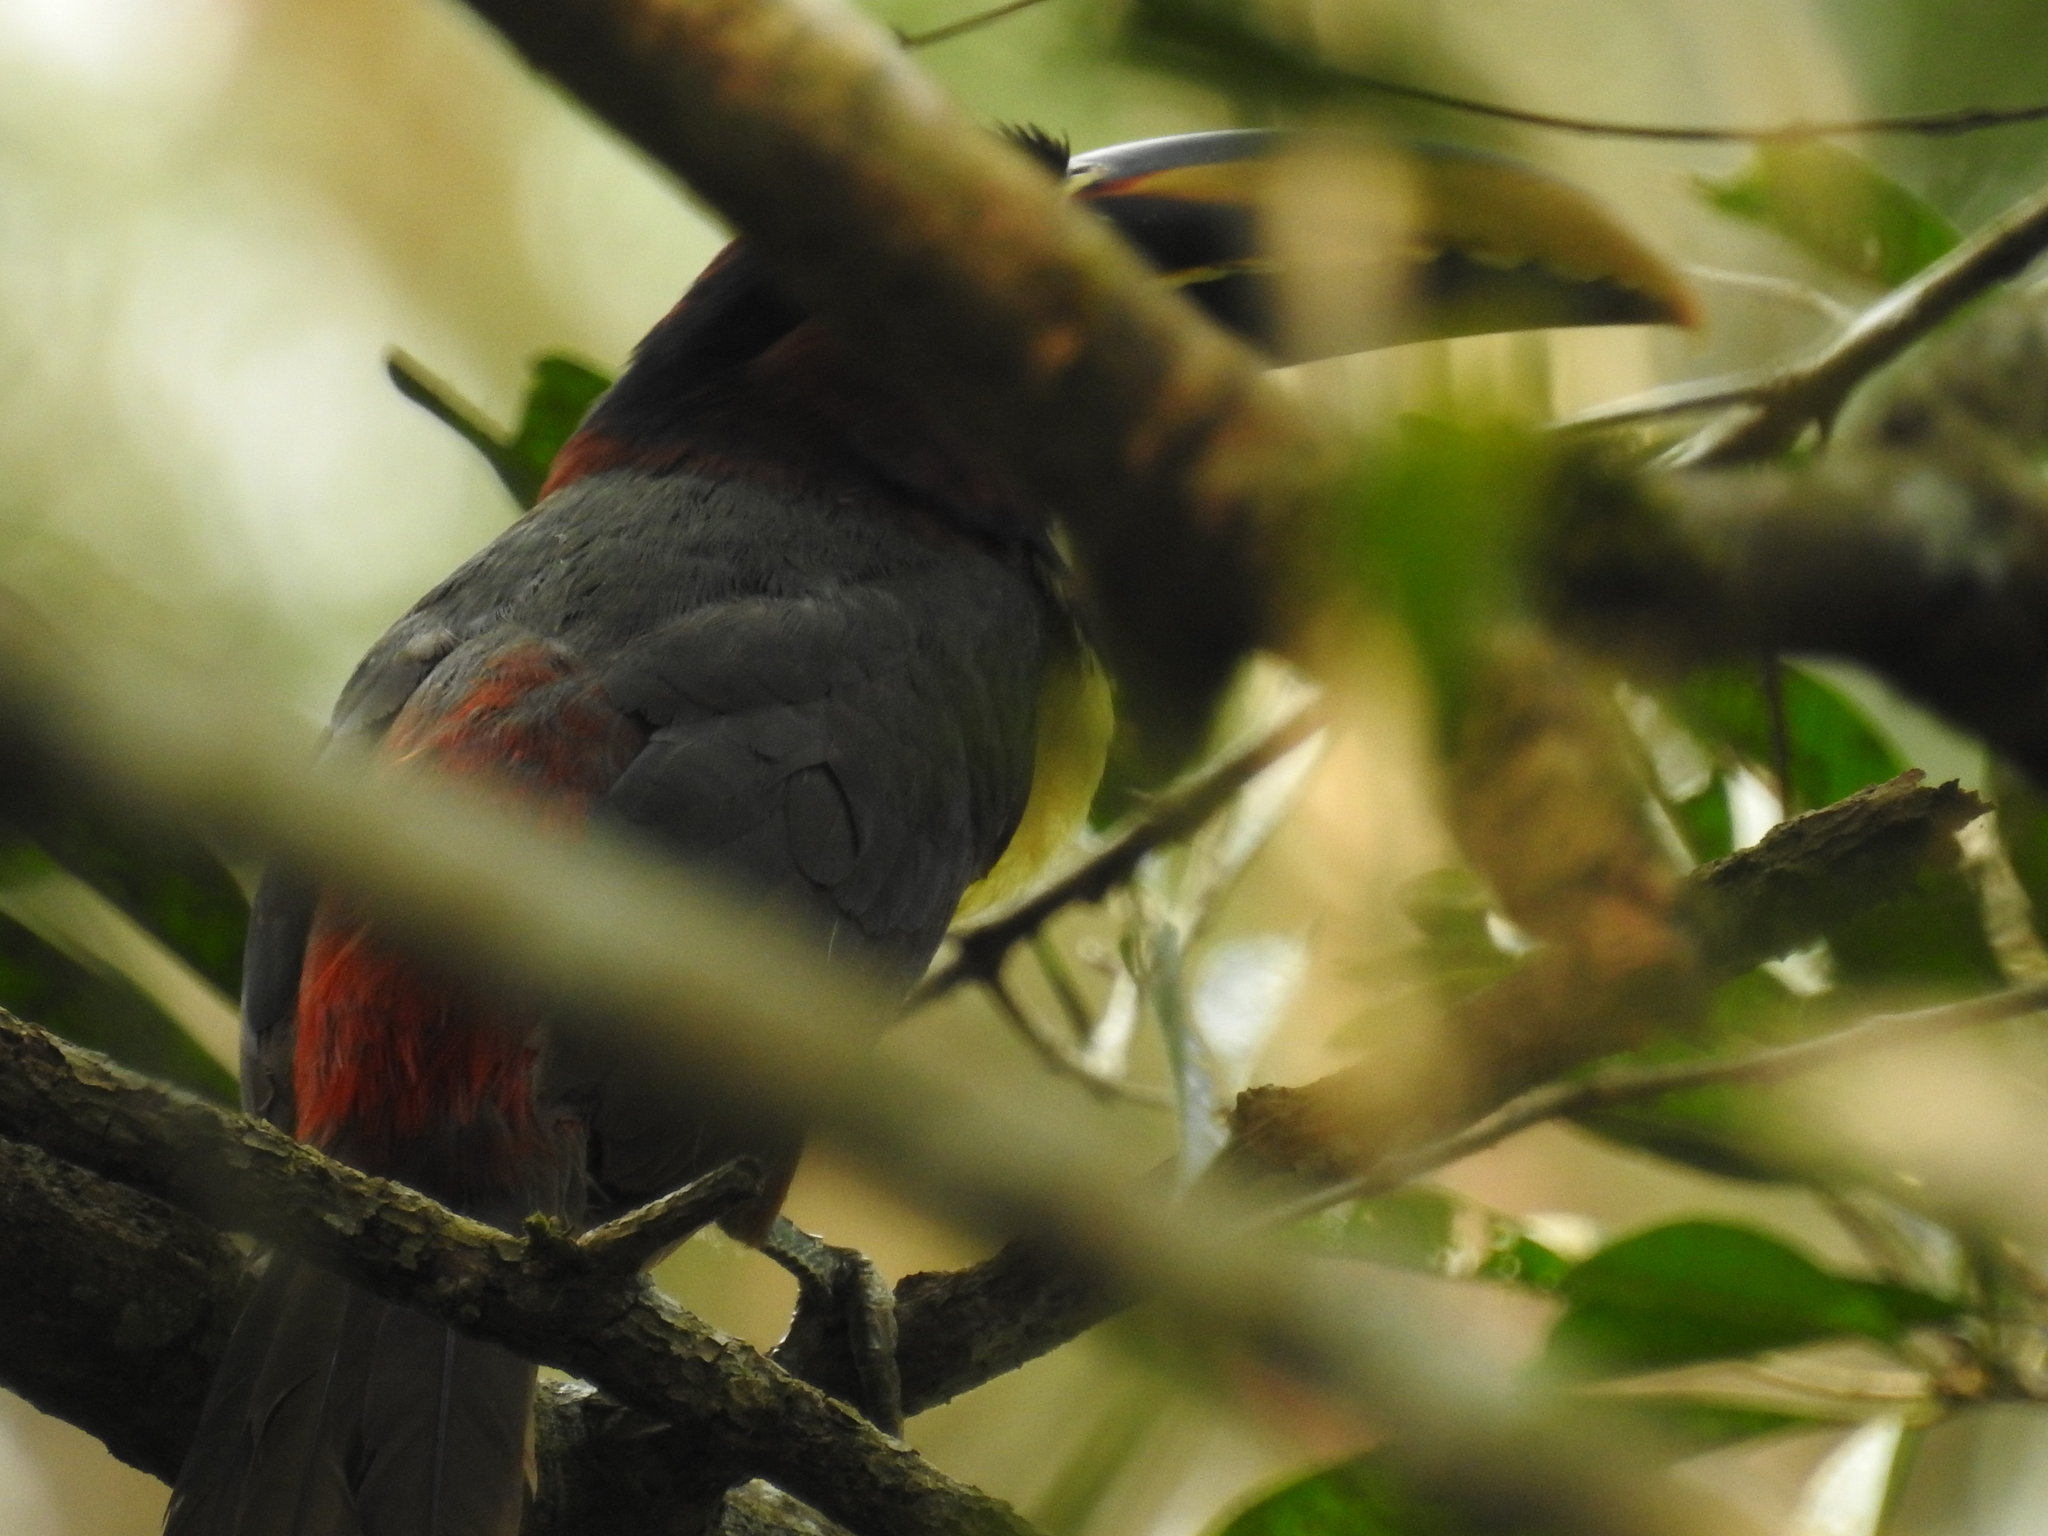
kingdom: Animalia
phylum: Chordata
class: Aves
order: Piciformes
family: Ramphastidae
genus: Pteroglossus
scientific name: Pteroglossus castanotis
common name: Chestnut-eared aracari
